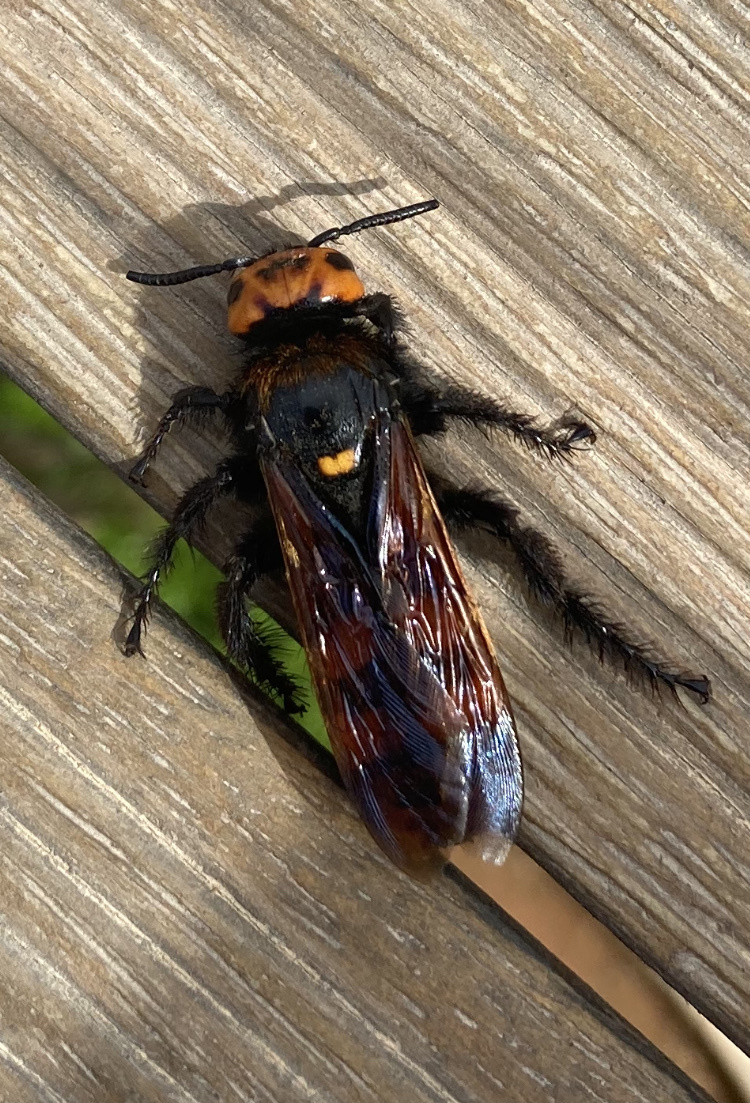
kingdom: Animalia
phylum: Arthropoda
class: Insecta
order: Hymenoptera
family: Scoliidae
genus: Megascolia
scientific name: Megascolia maculata
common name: Mammoth wasp
